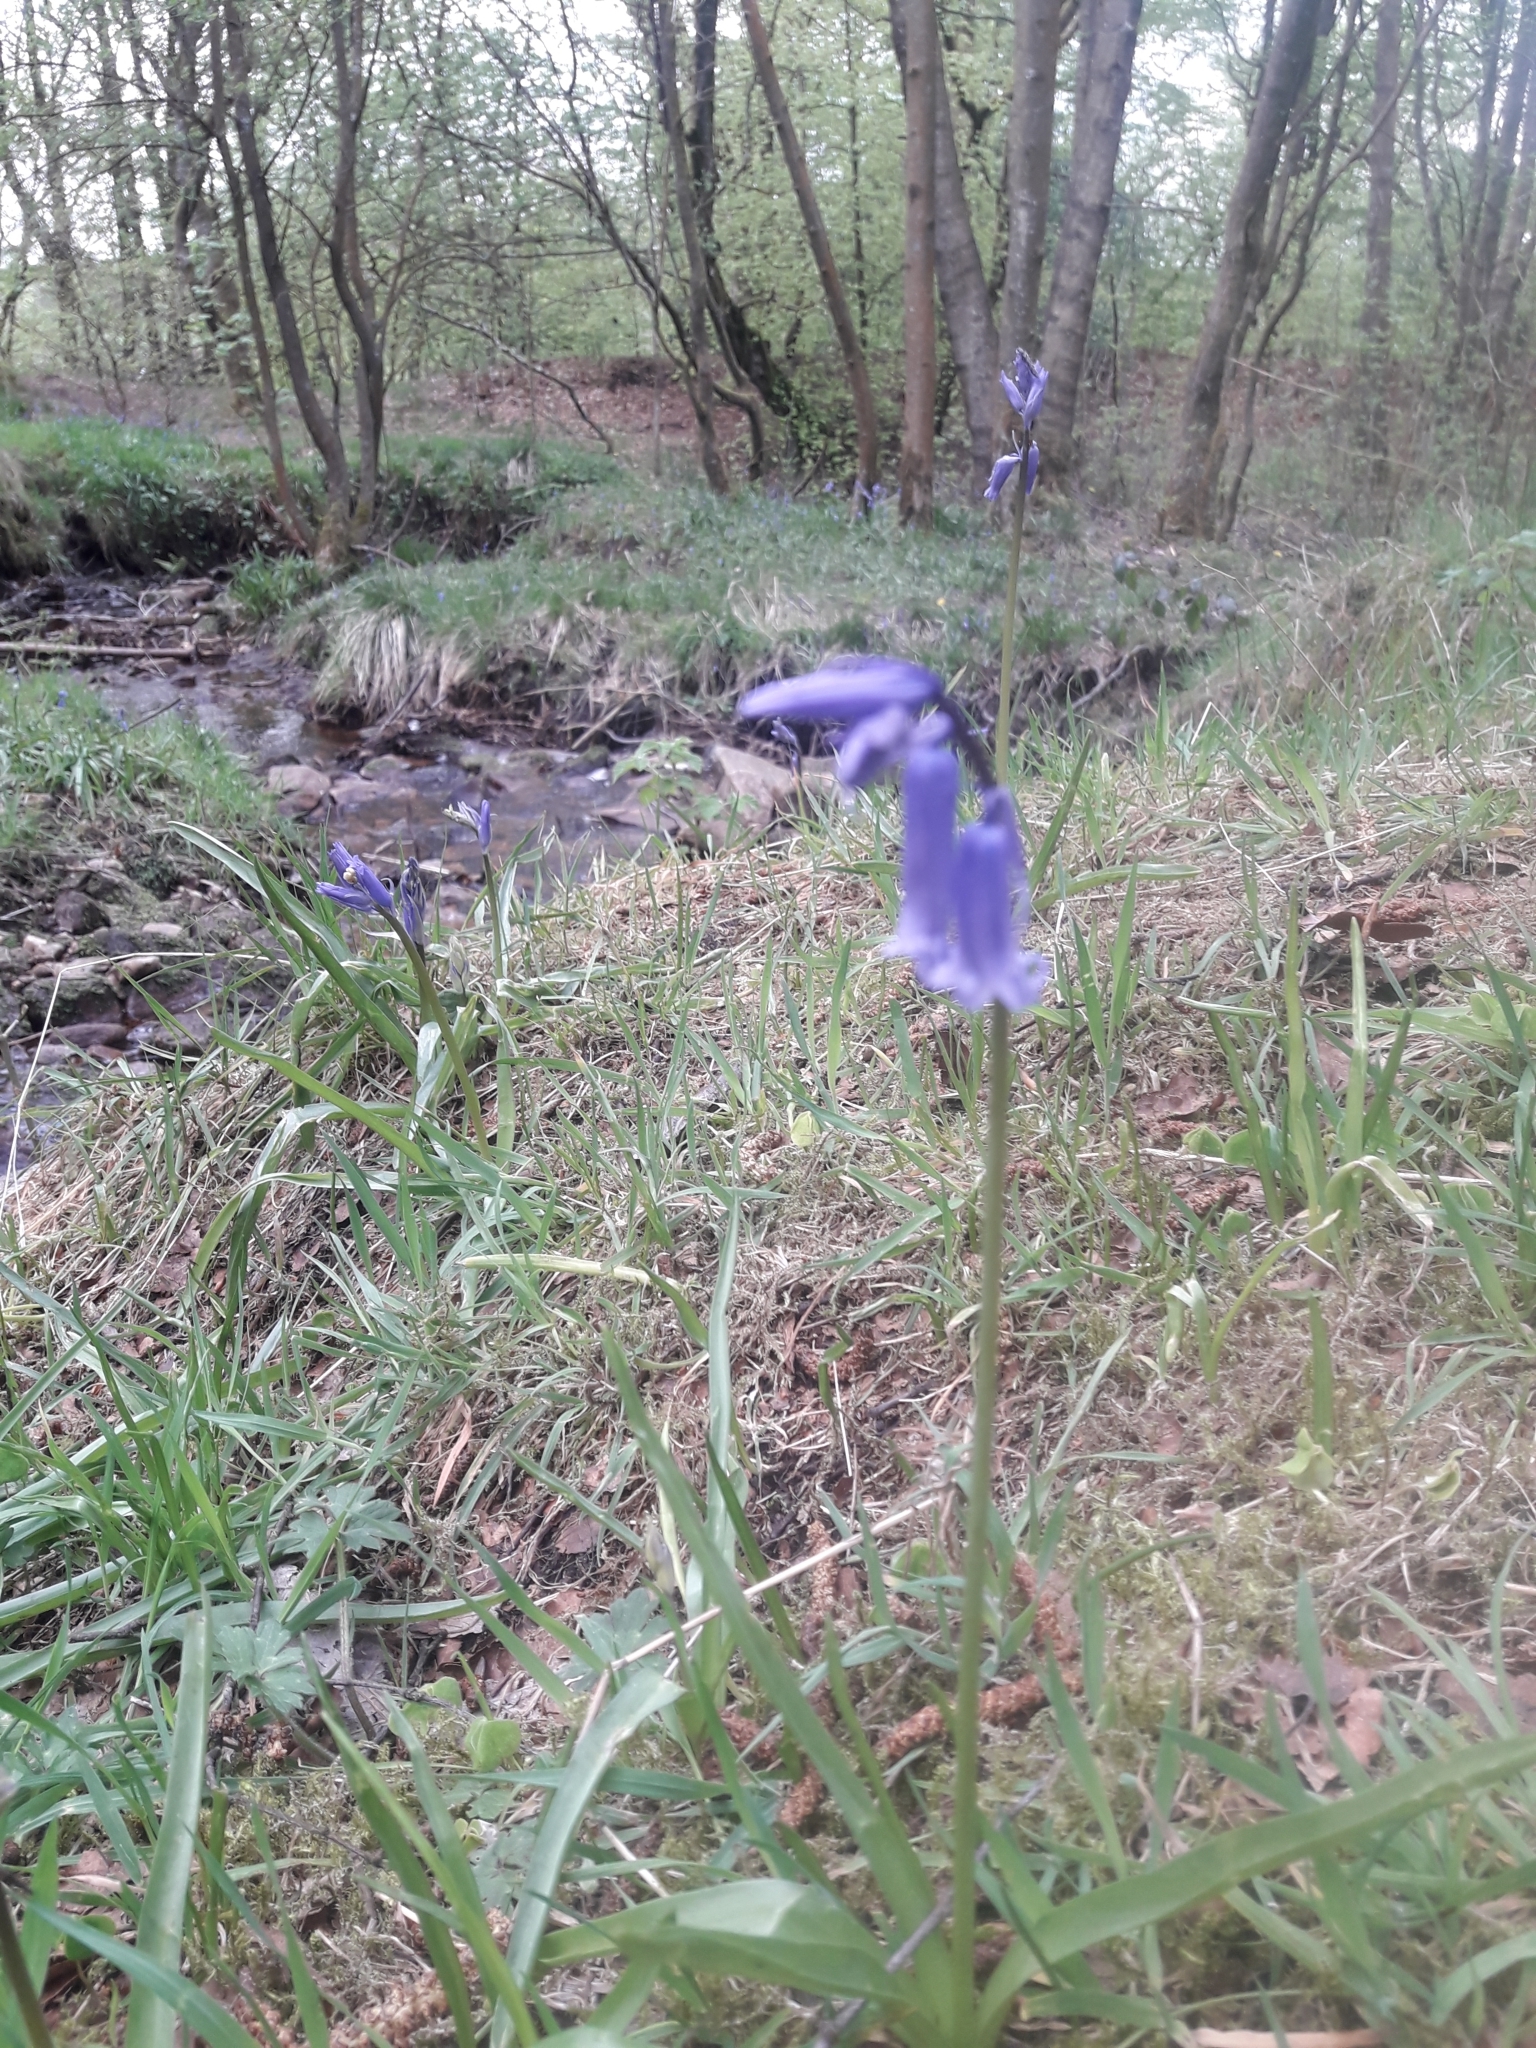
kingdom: Plantae
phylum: Tracheophyta
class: Liliopsida
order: Asparagales
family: Asparagaceae
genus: Hyacinthoides
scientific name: Hyacinthoides non-scripta
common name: Bluebell
